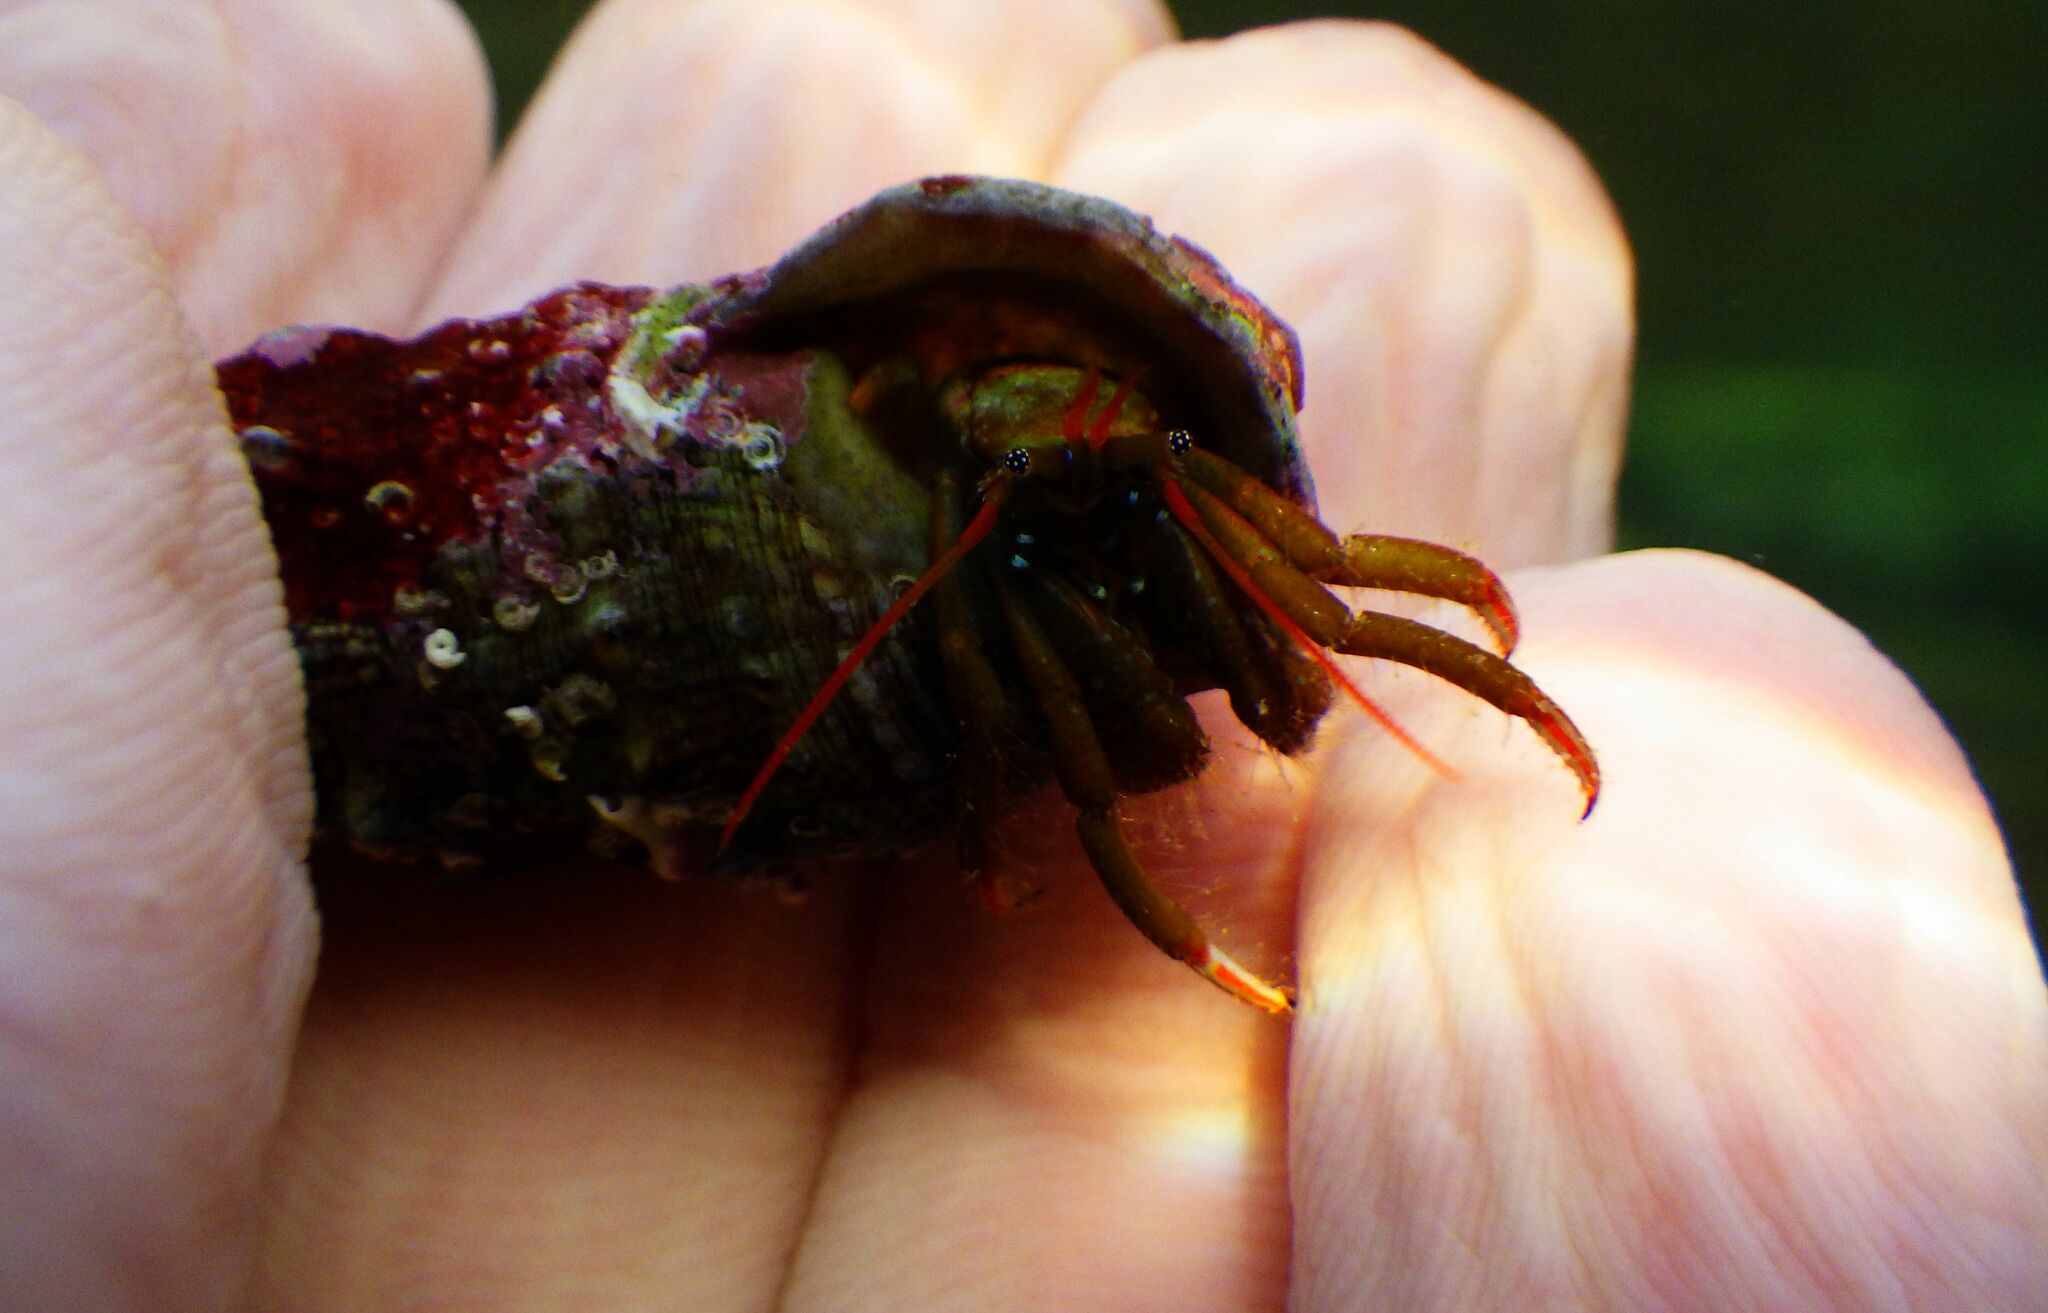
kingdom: Animalia
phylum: Arthropoda
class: Malacostraca
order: Decapoda
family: Diogenidae
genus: Clibanarius
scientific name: Clibanarius erythropus
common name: Hermit crab
